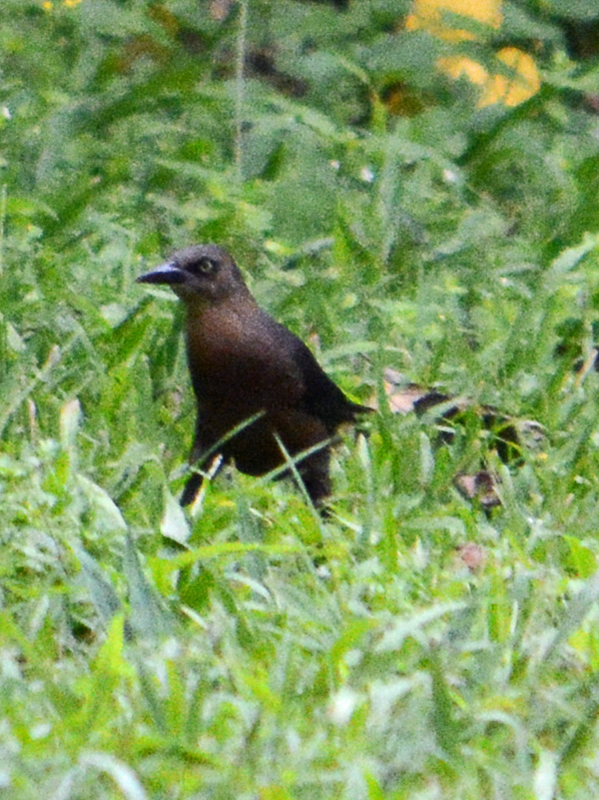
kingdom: Animalia
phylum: Chordata
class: Aves
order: Passeriformes
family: Icteridae
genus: Quiscalus
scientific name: Quiscalus mexicanus
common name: Great-tailed grackle
